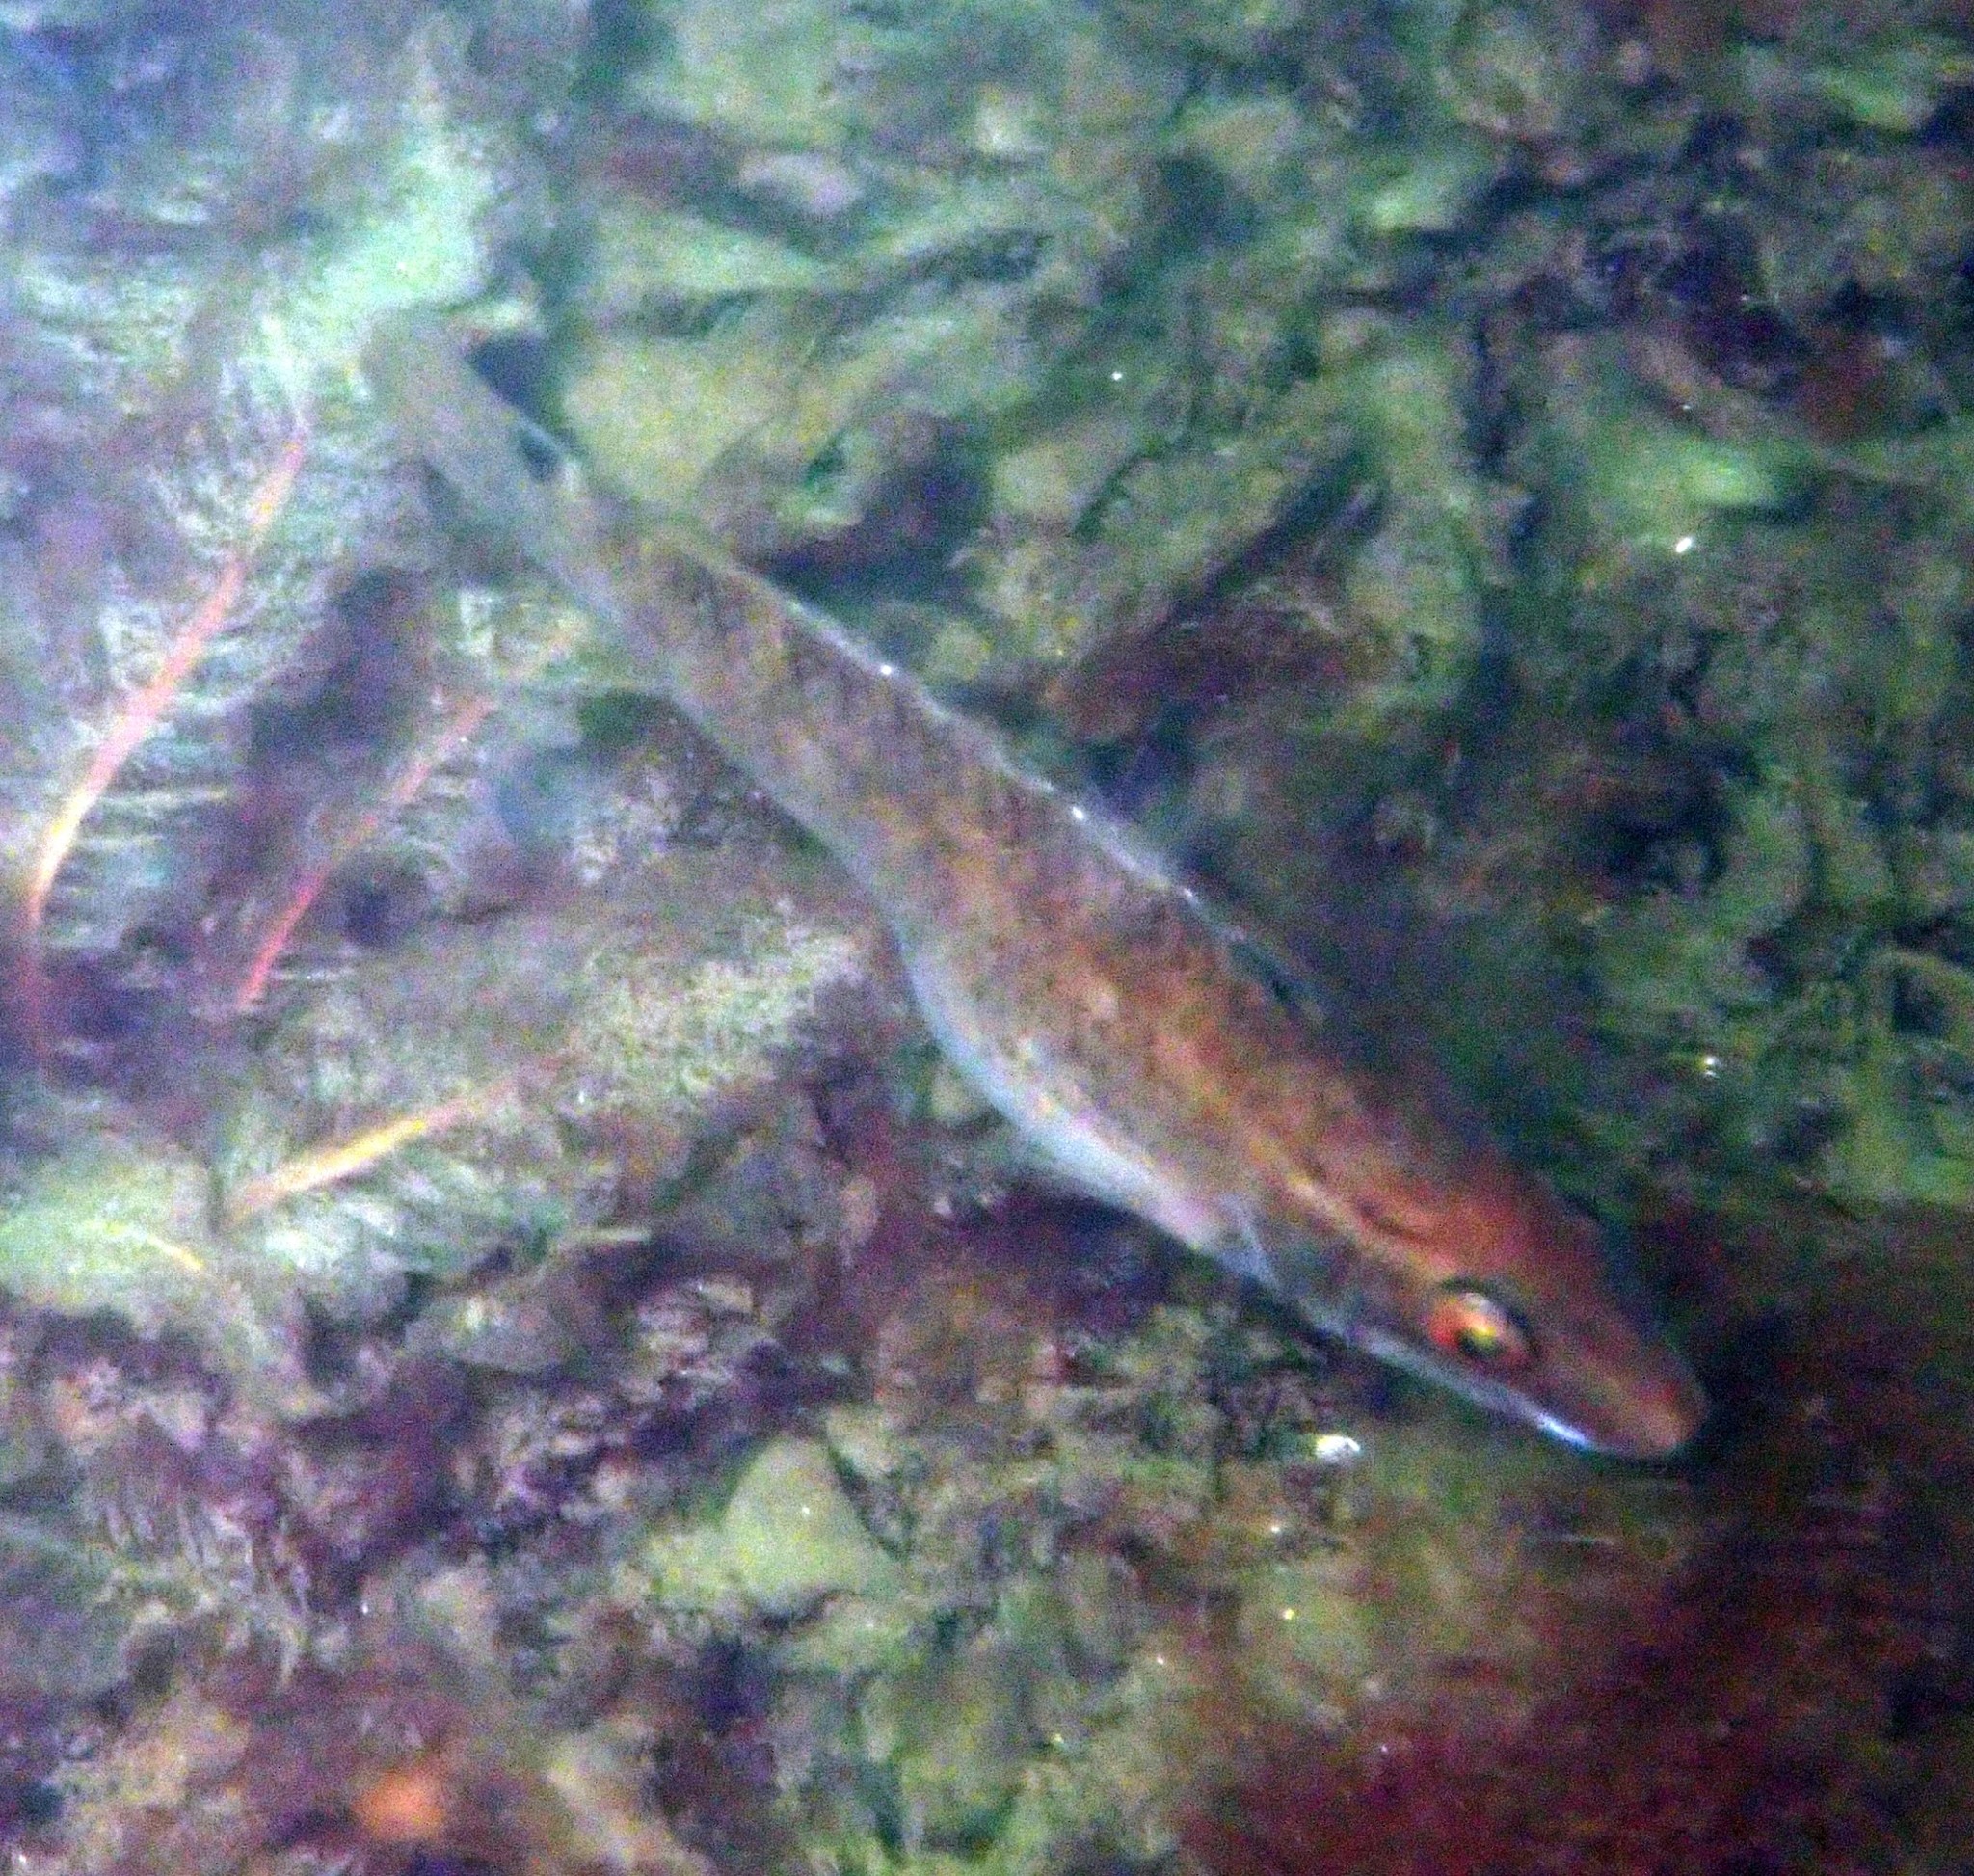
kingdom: Animalia
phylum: Chordata
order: Perciformes
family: Labridae
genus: Ctenolabrus
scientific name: Ctenolabrus rupestris
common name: Goldsinny
